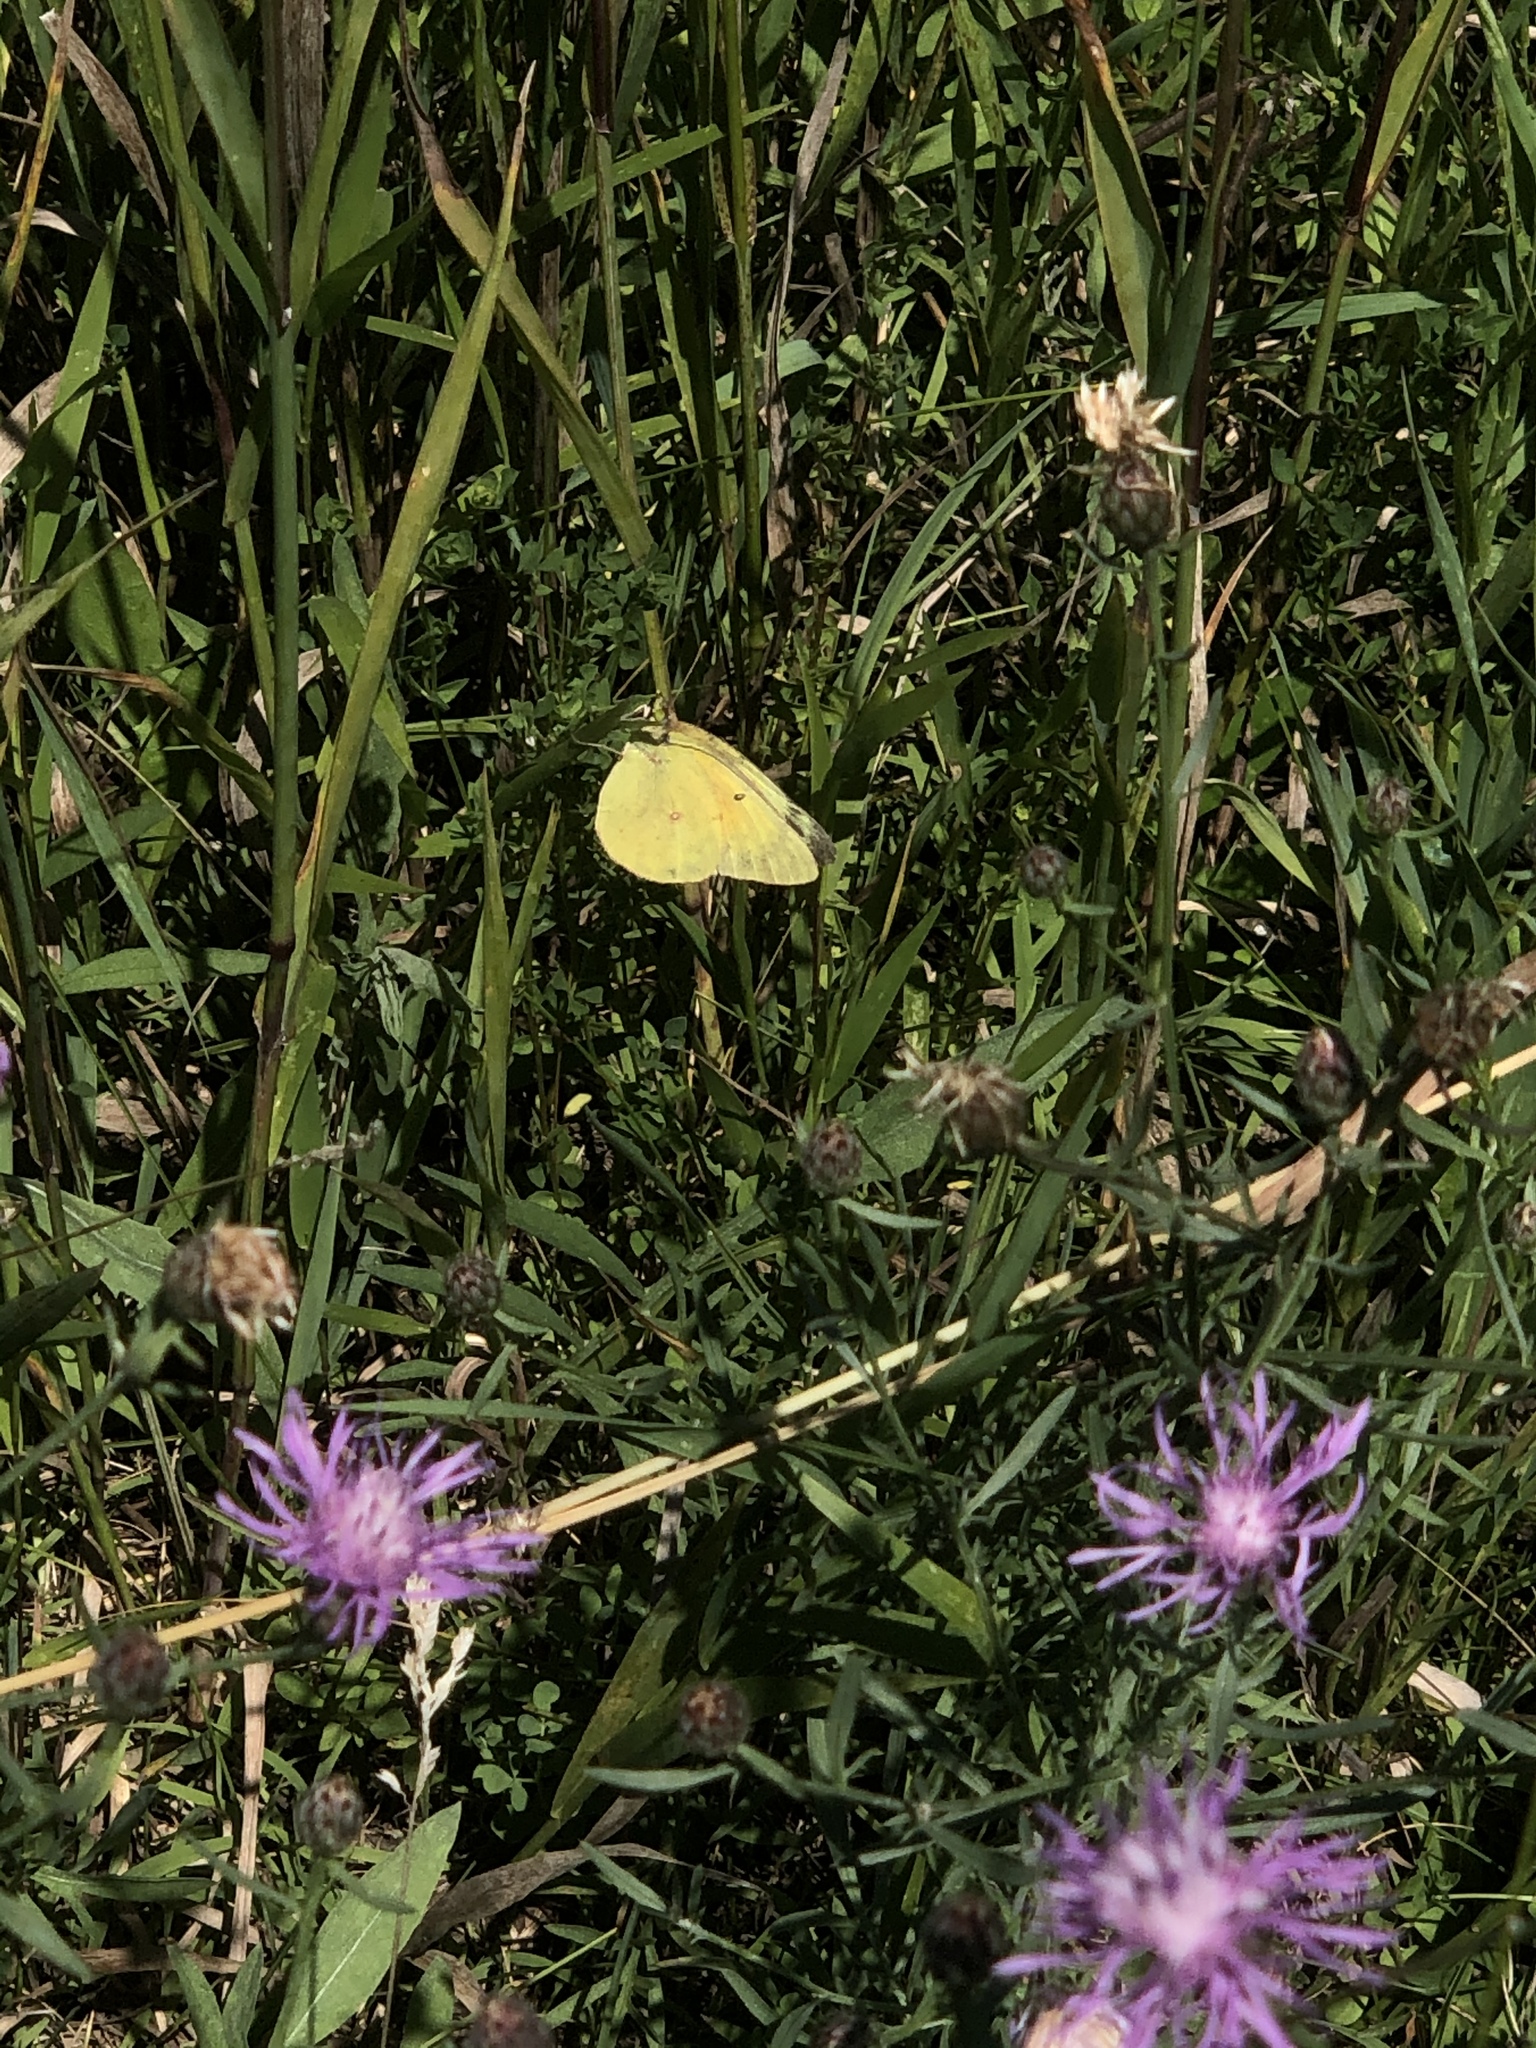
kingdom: Animalia
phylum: Arthropoda
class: Insecta
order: Lepidoptera
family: Pieridae
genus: Colias
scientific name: Colias eurytheme
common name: Alfalfa butterfly
